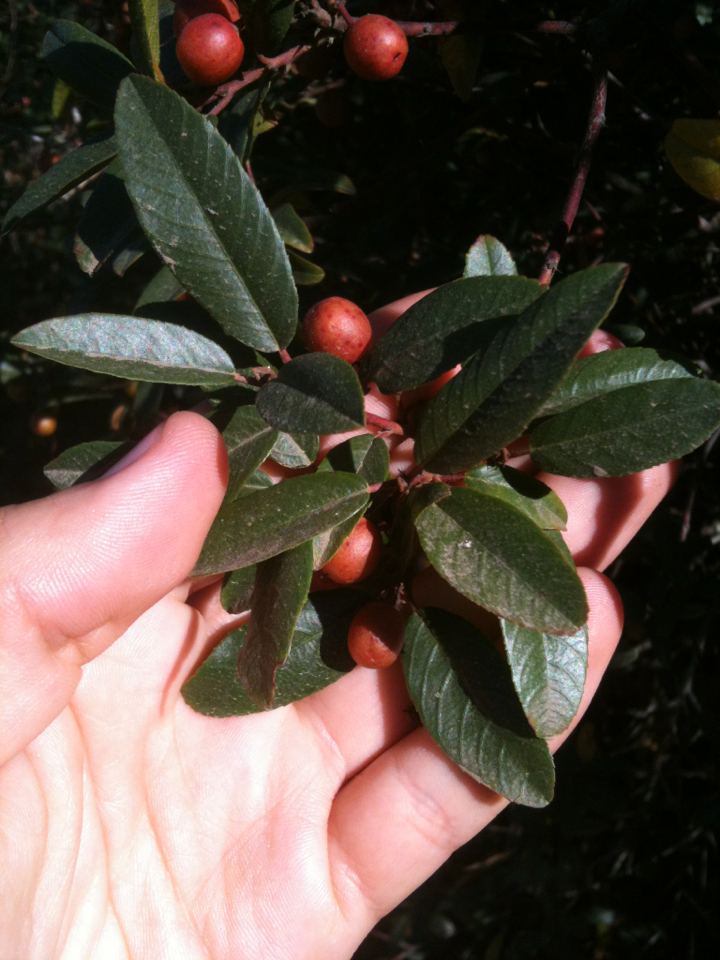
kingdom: Plantae
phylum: Tracheophyta
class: Magnoliopsida
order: Rosales
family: Rhamnaceae
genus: Frangula
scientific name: Frangula californica
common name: California buckthorn
